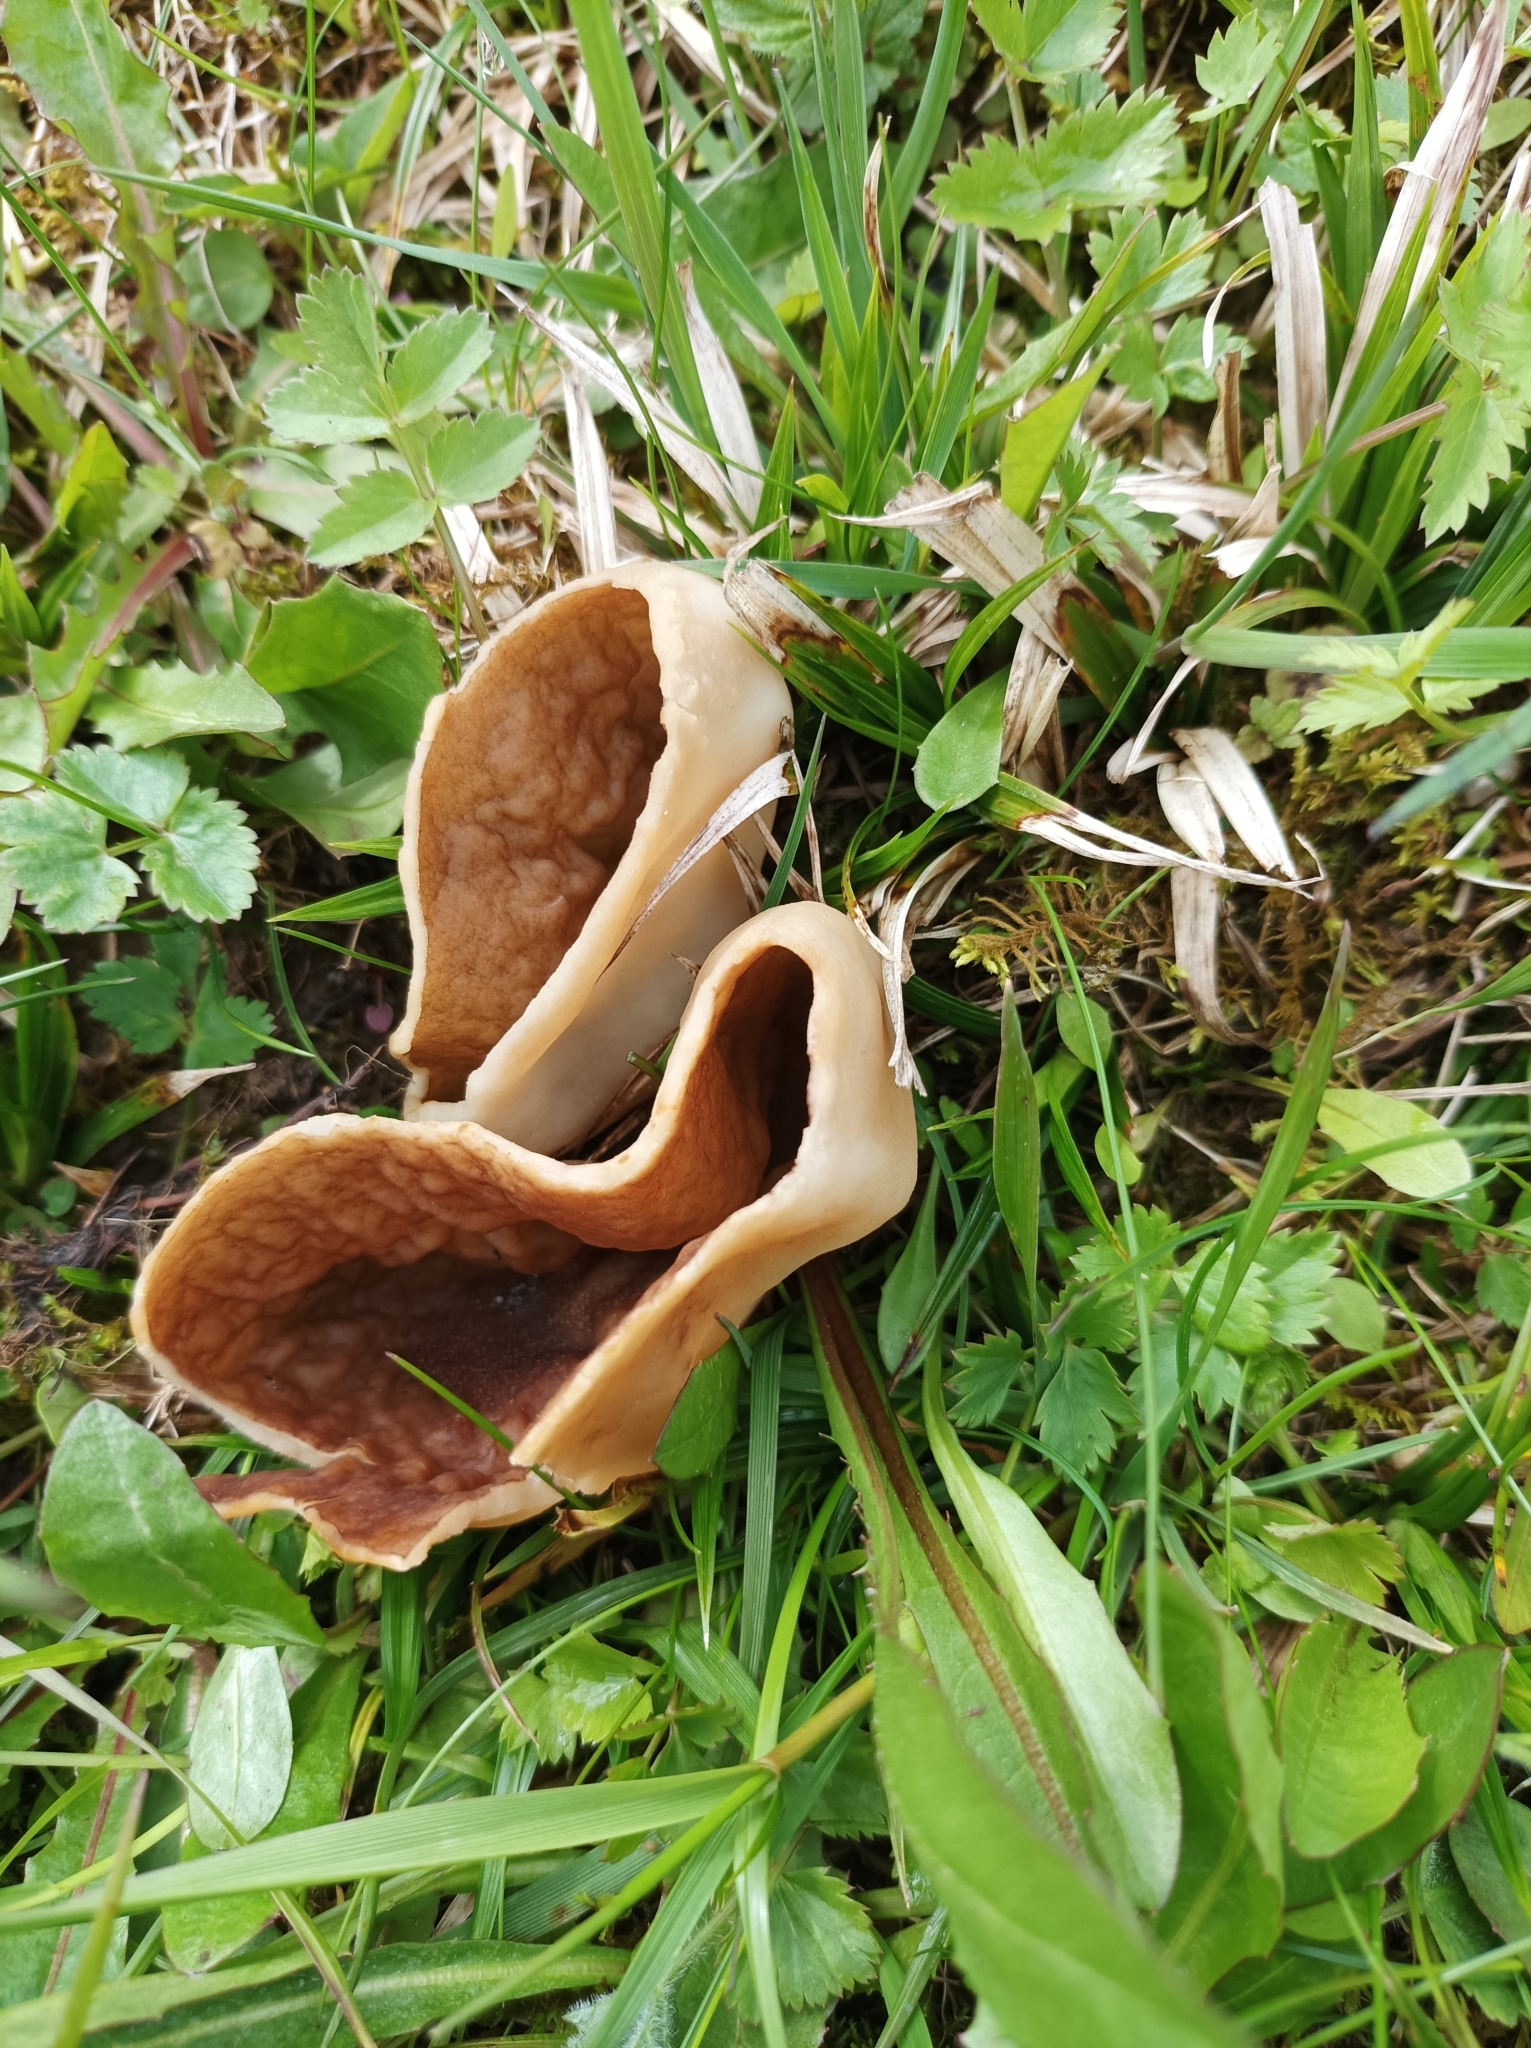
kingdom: Fungi
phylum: Ascomycota
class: Pezizomycetes
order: Pezizales
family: Morchellaceae
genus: Disciotis
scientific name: Disciotis venosa
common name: Bleach cup
